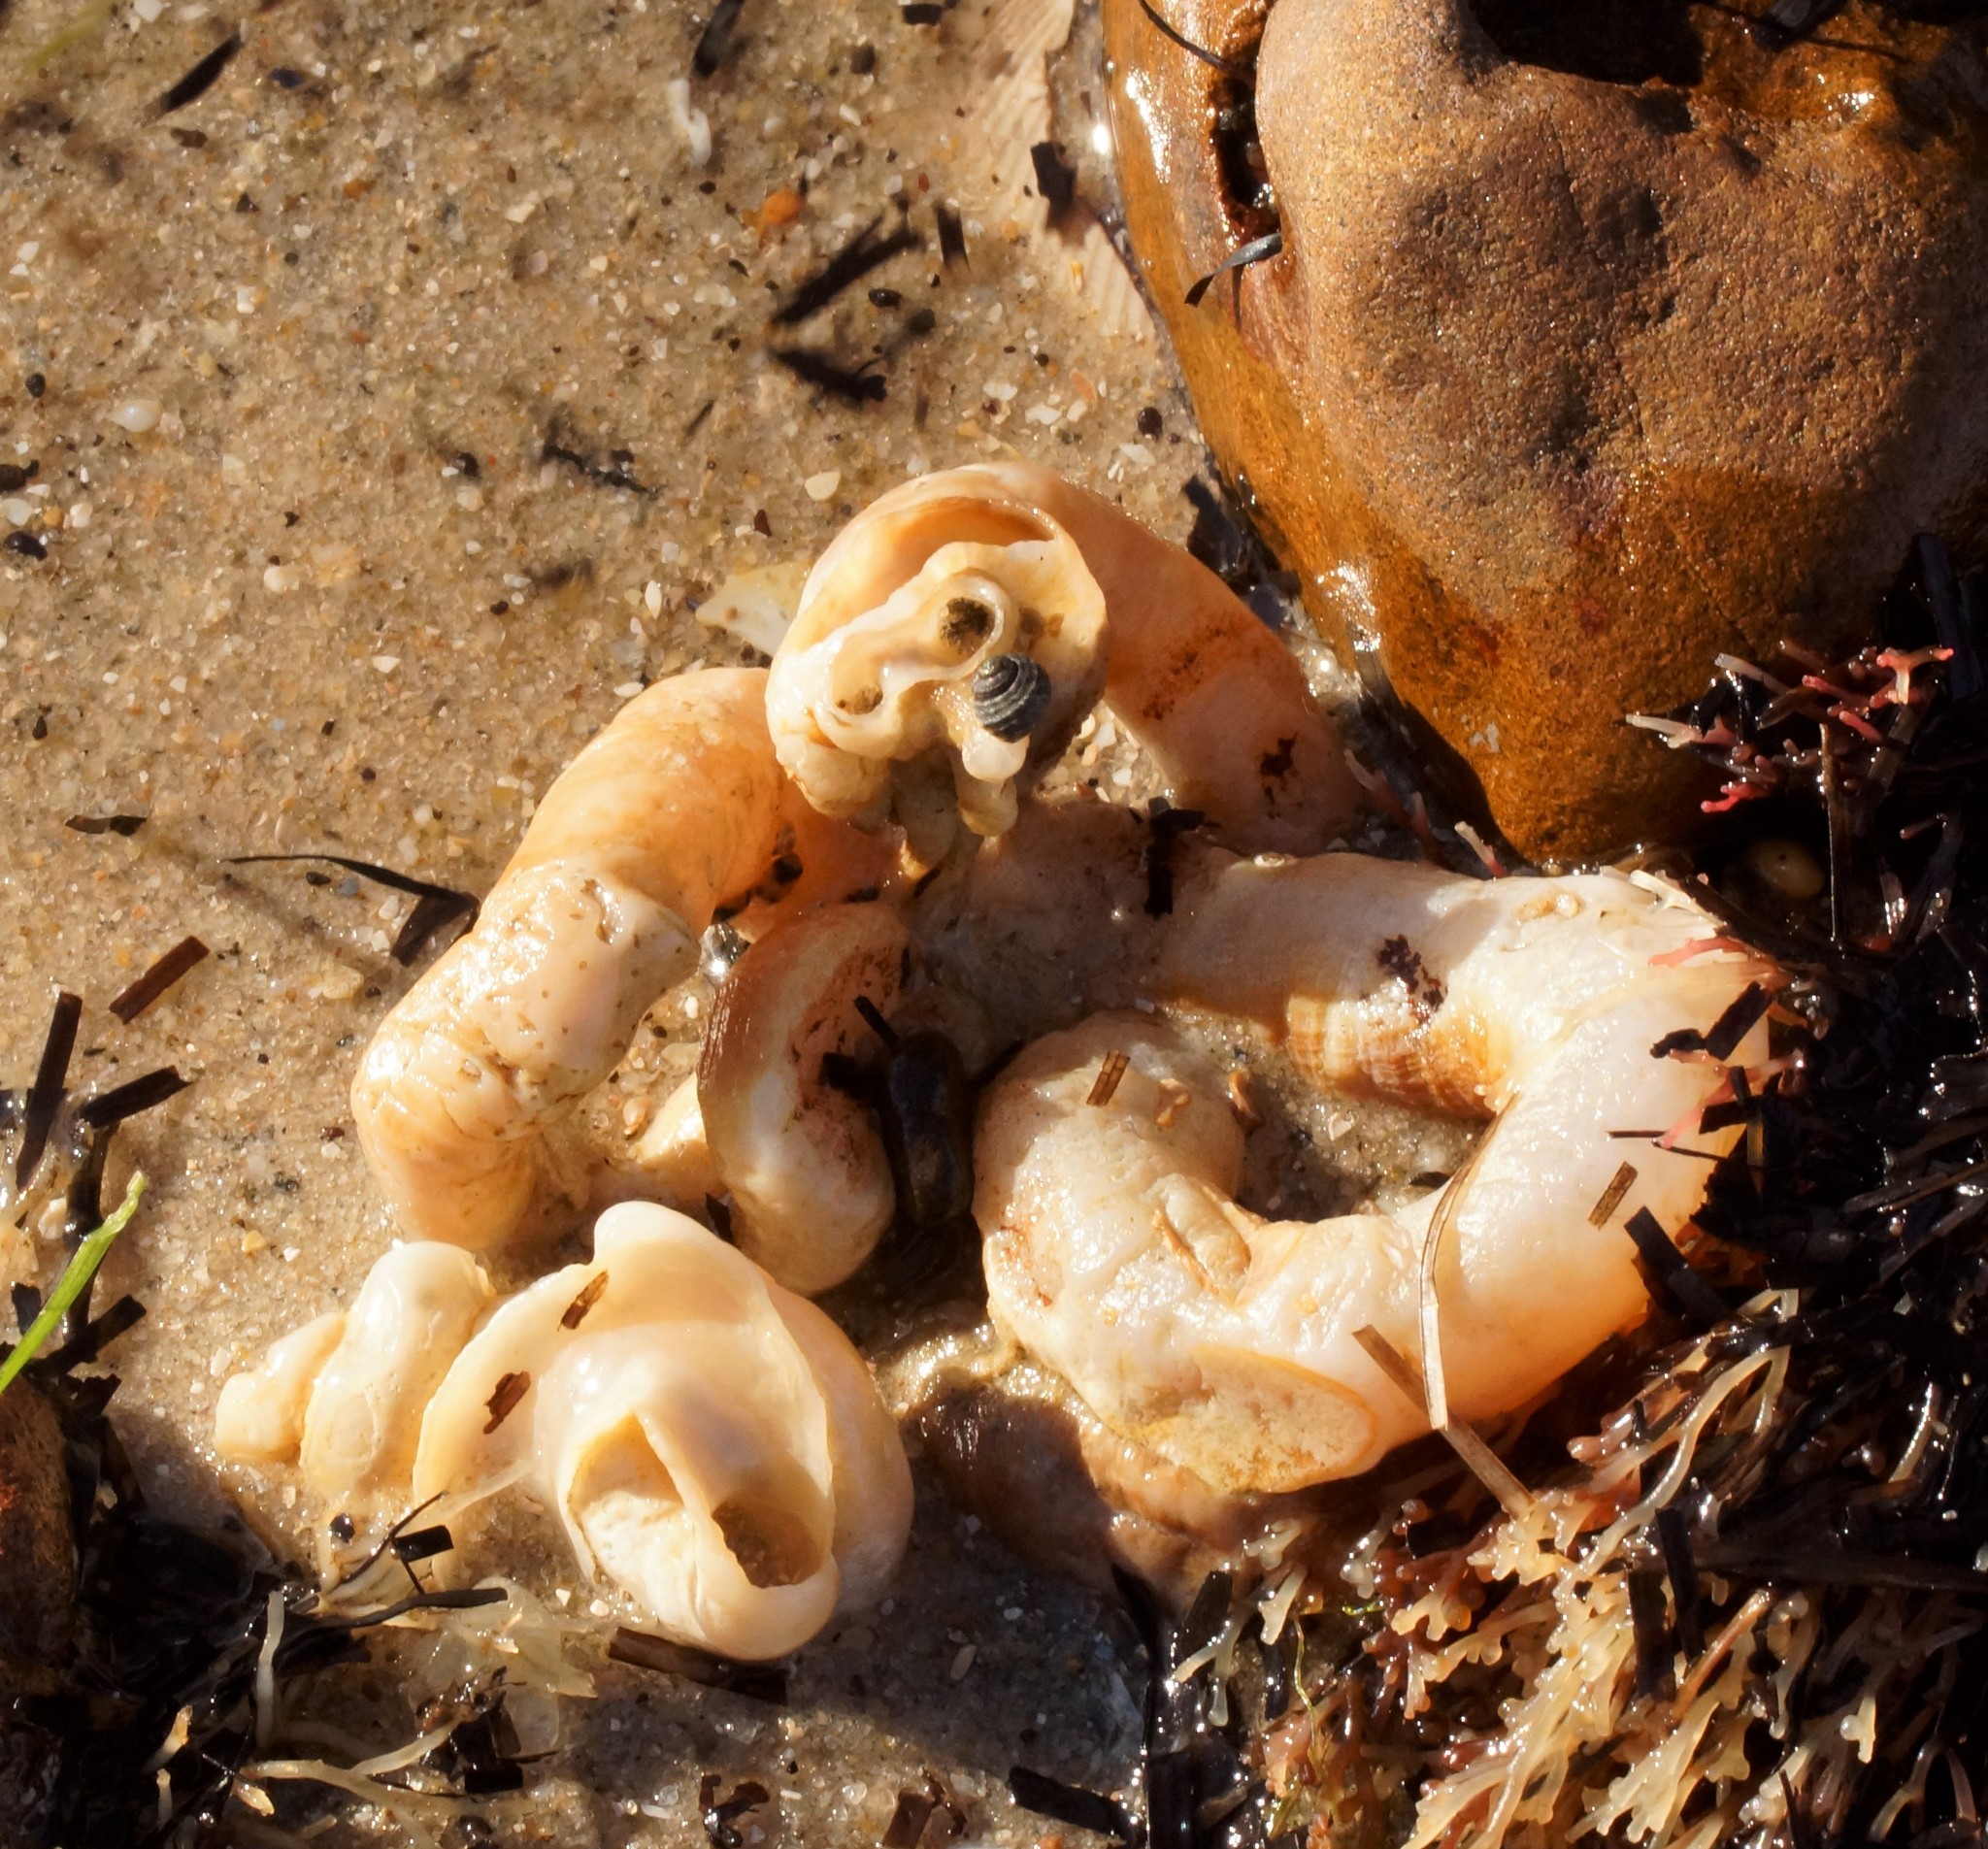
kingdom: Animalia
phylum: Mollusca
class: Gastropoda
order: Littorinimorpha
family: Vermetidae
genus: Thylacodes
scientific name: Thylacodes sipho
